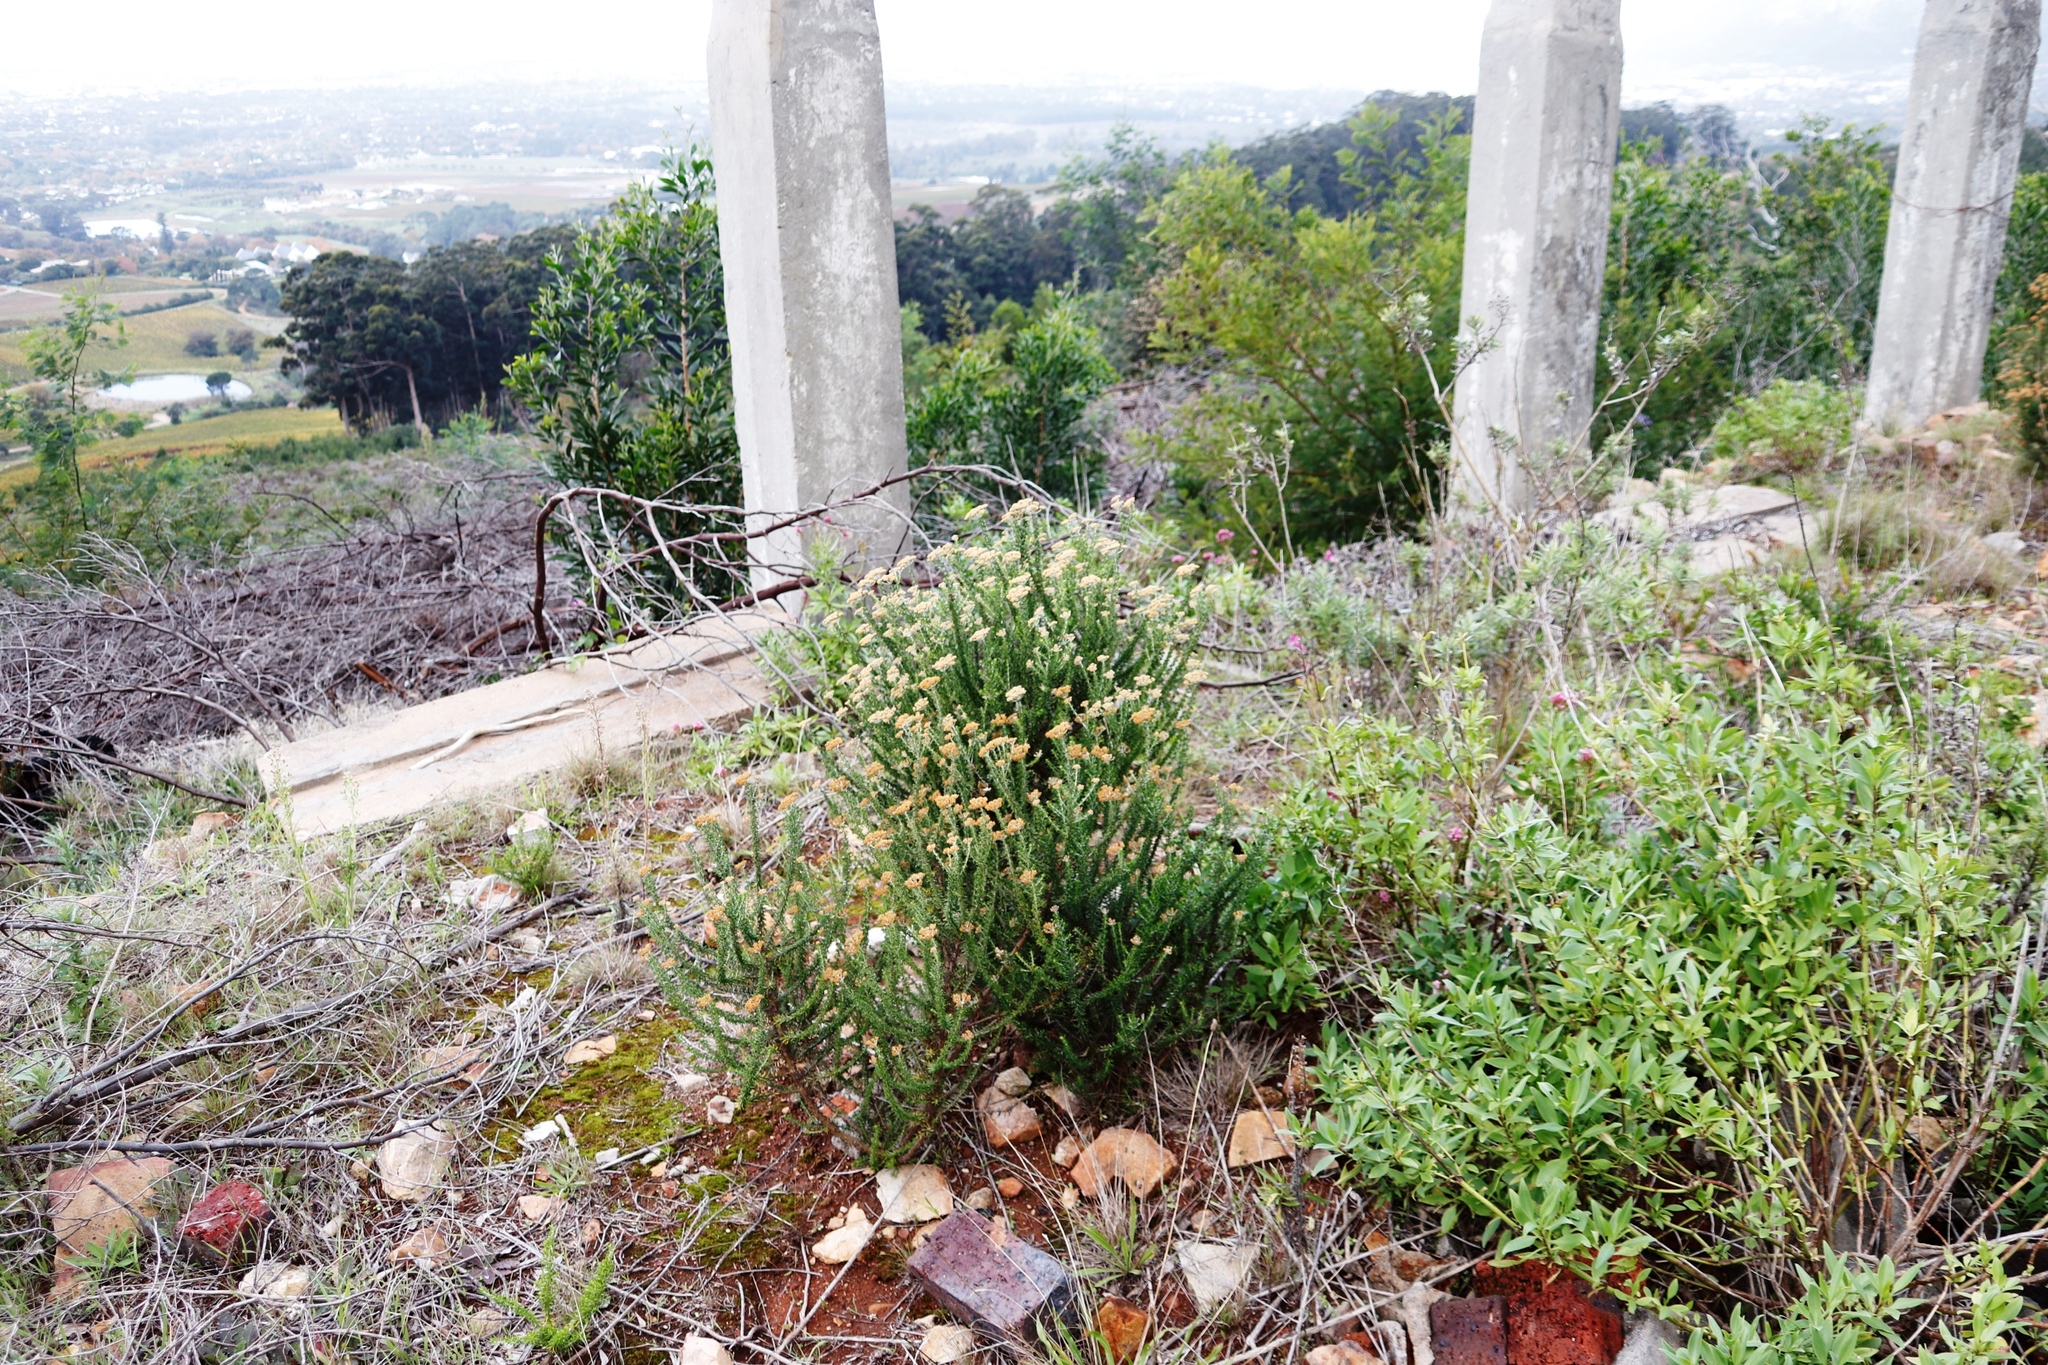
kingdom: Plantae
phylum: Tracheophyta
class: Magnoliopsida
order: Asterales
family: Asteraceae
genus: Metalasia
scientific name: Metalasia densa
